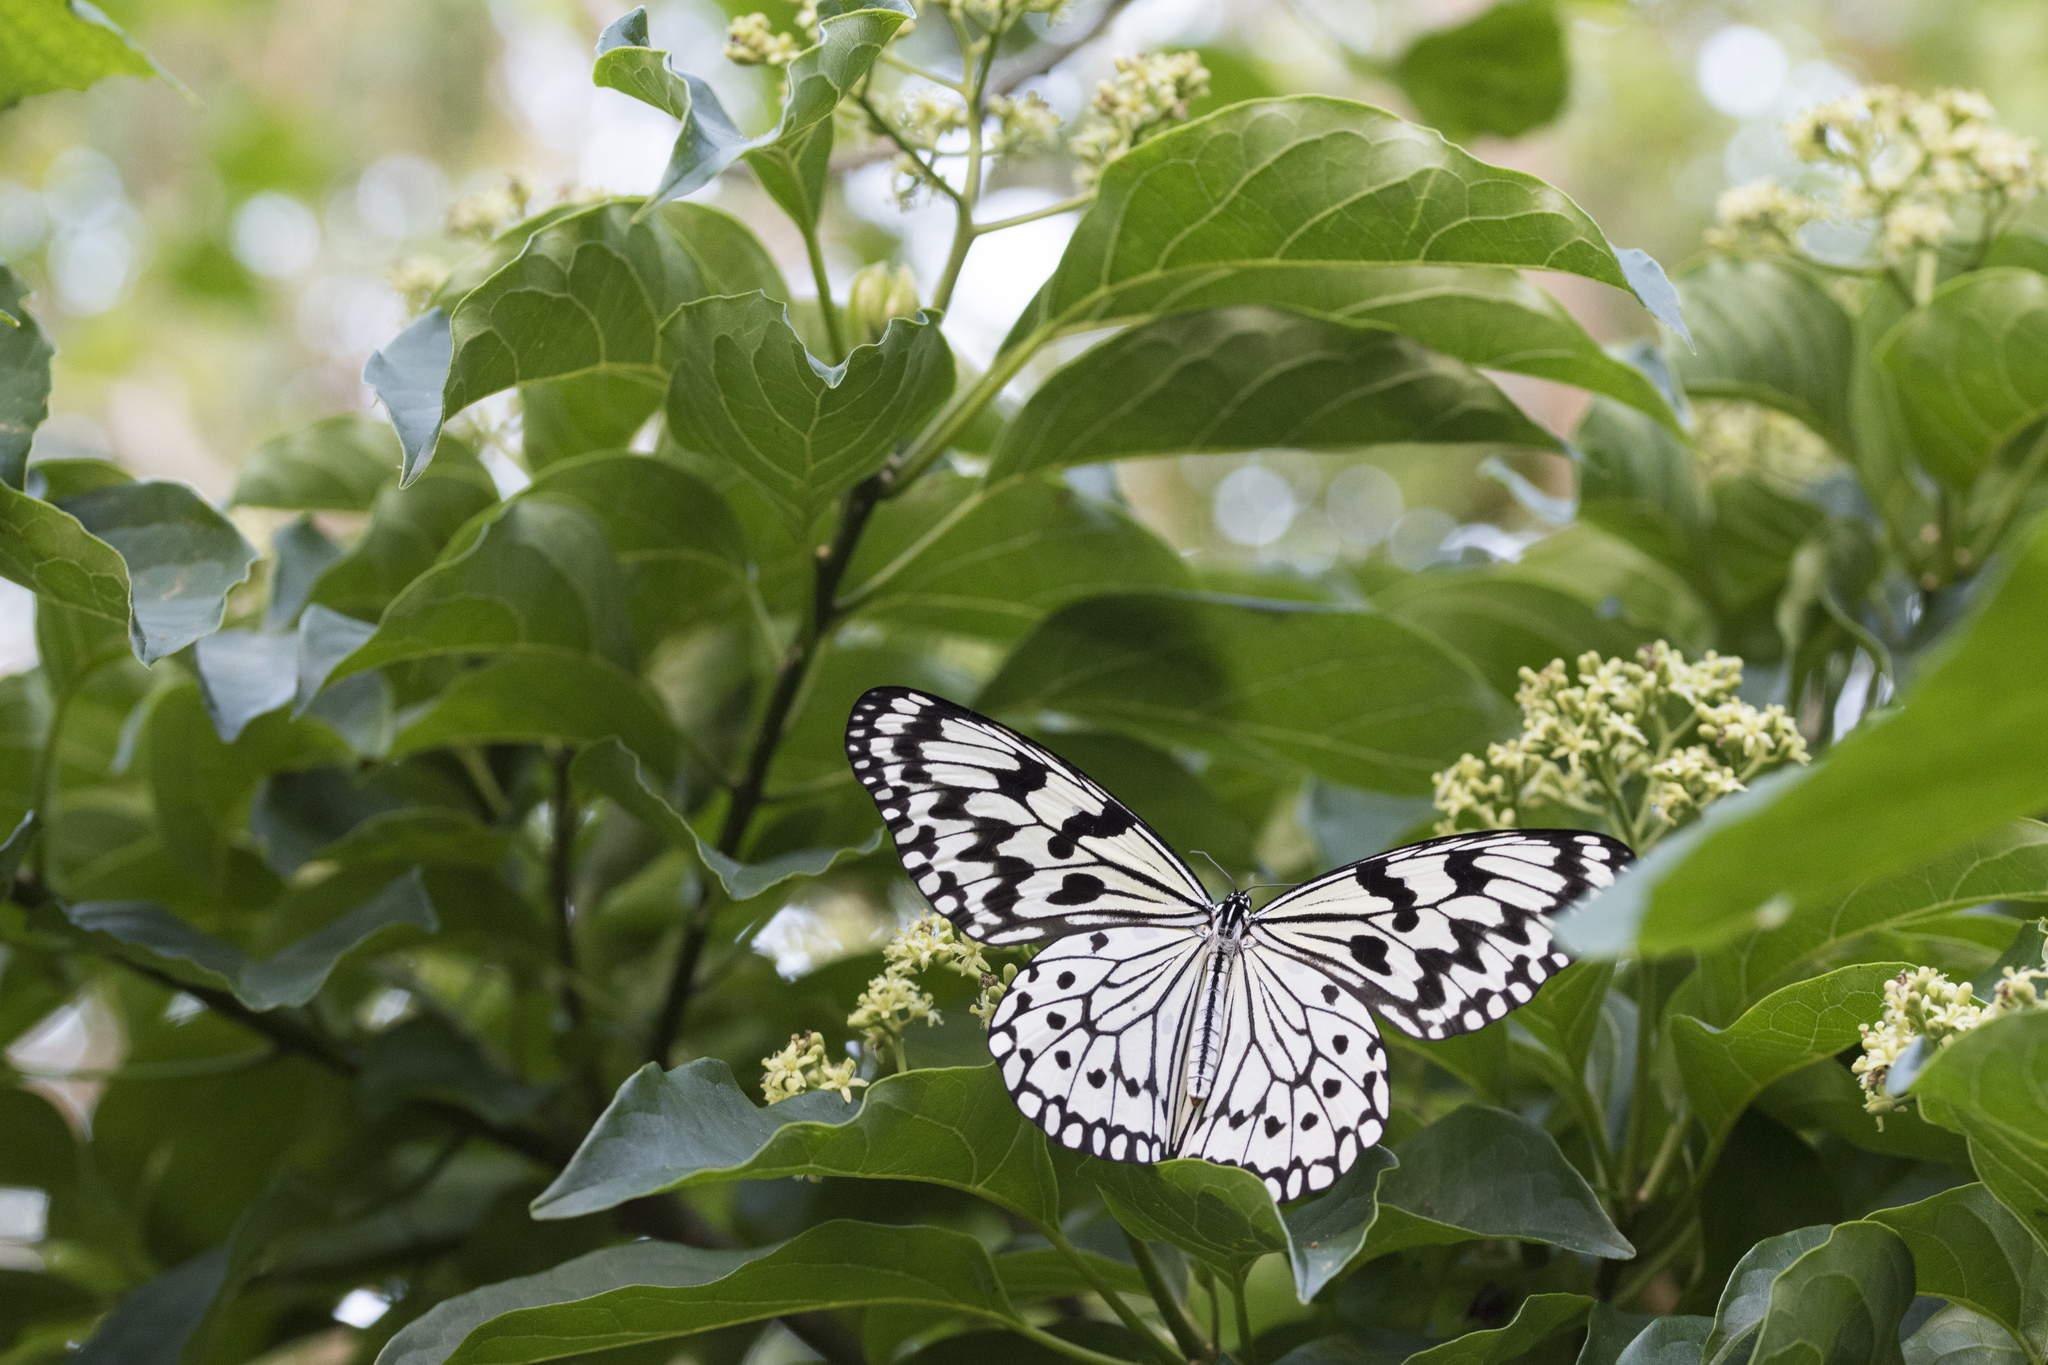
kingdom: Animalia
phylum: Arthropoda
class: Insecta
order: Lepidoptera
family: Nymphalidae
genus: Idea
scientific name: Idea leuconoe
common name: Rice paper butterfly
